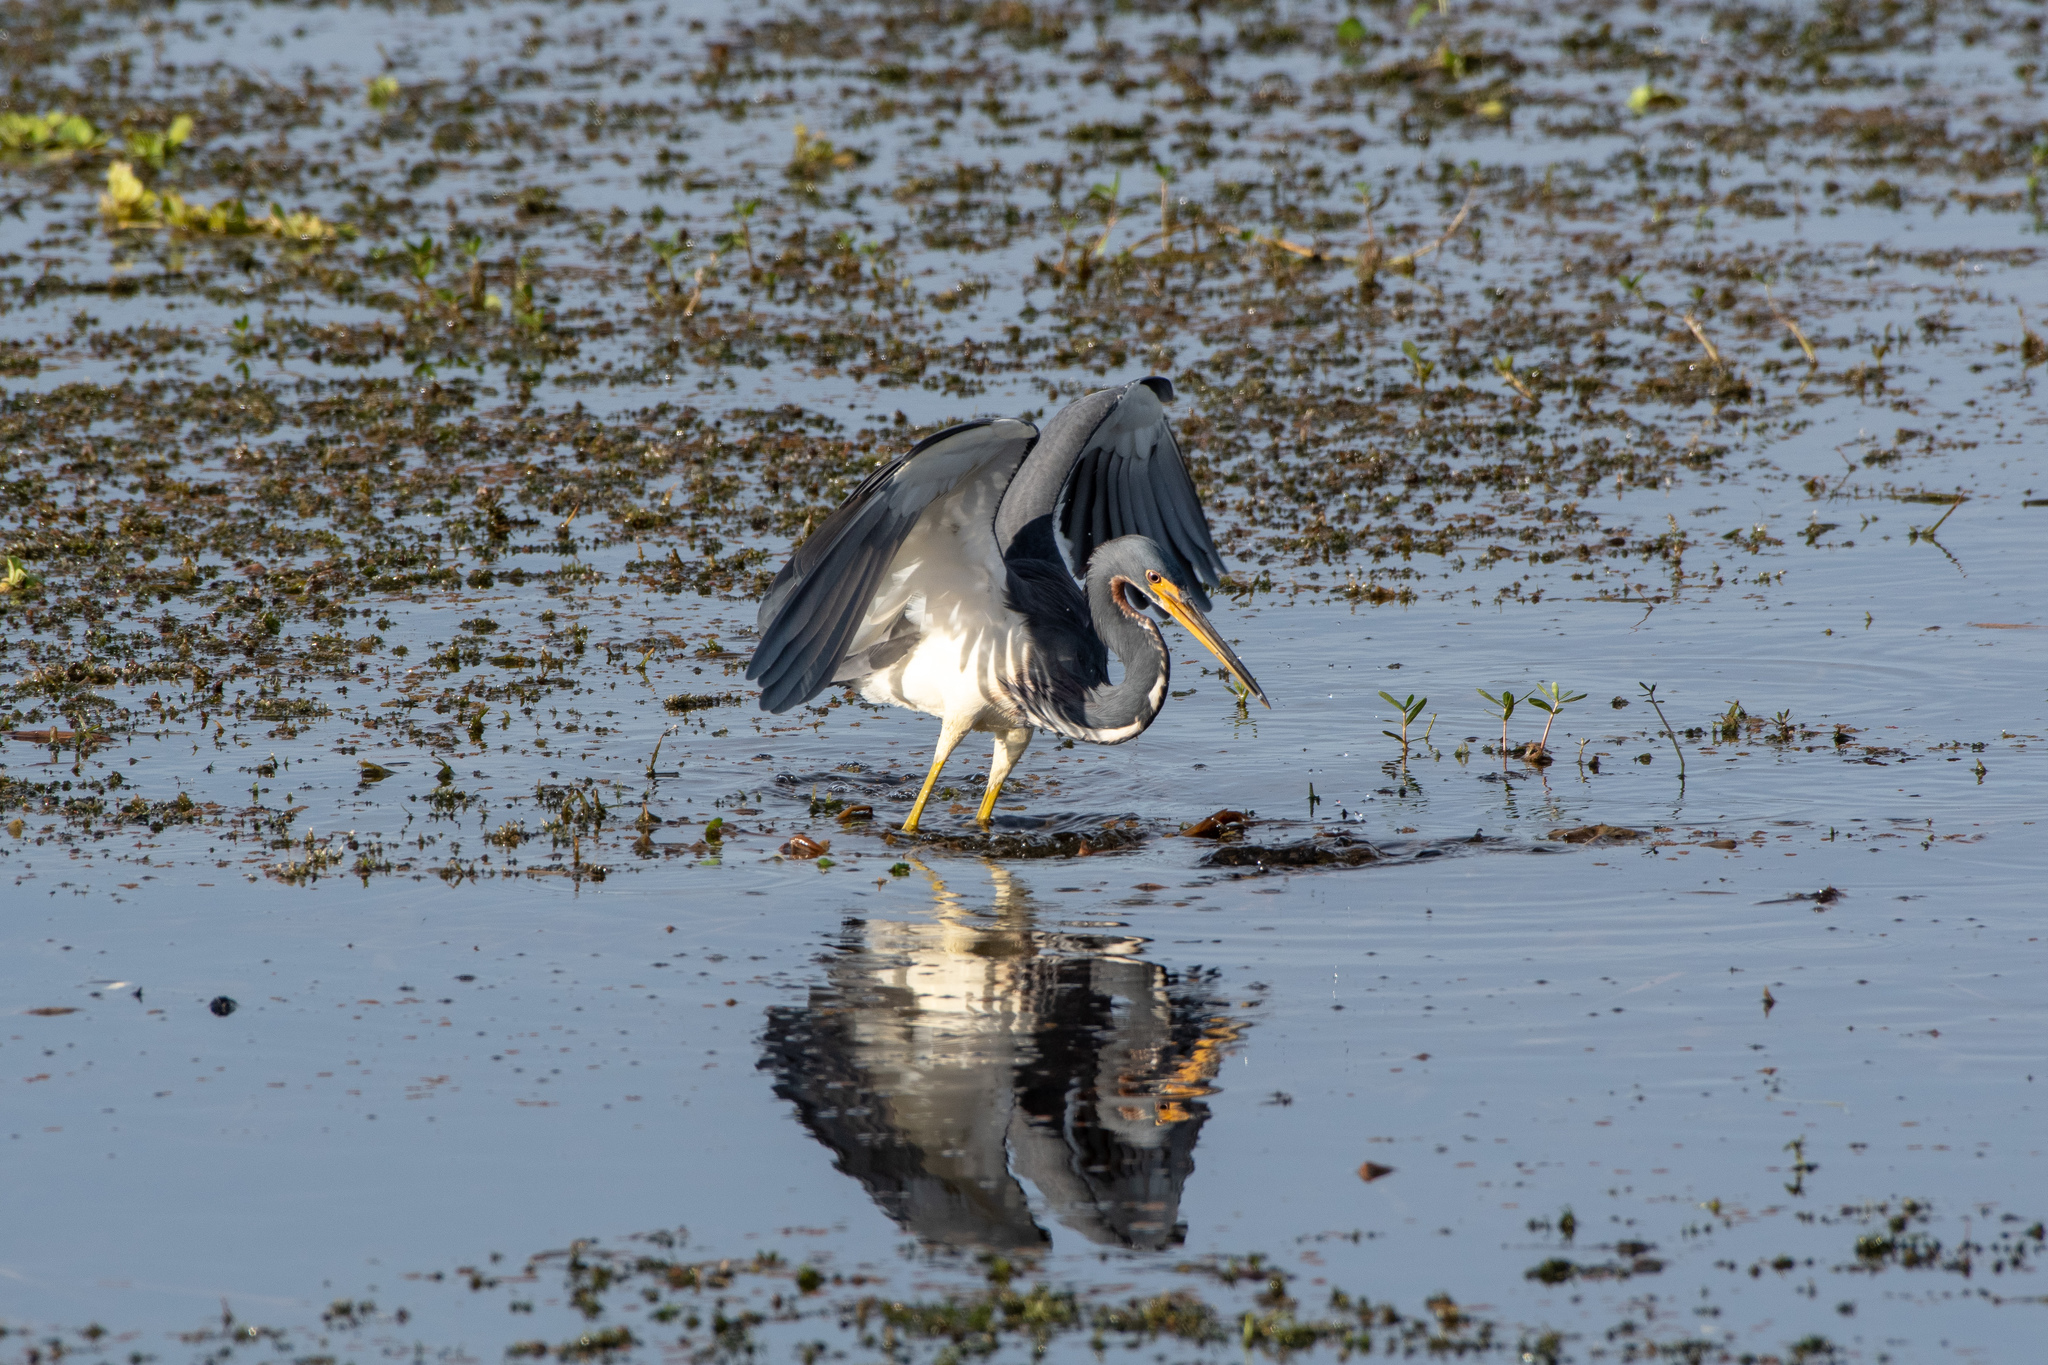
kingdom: Animalia
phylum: Chordata
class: Aves
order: Pelecaniformes
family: Ardeidae
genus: Egretta
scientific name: Egretta tricolor
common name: Tricolored heron
